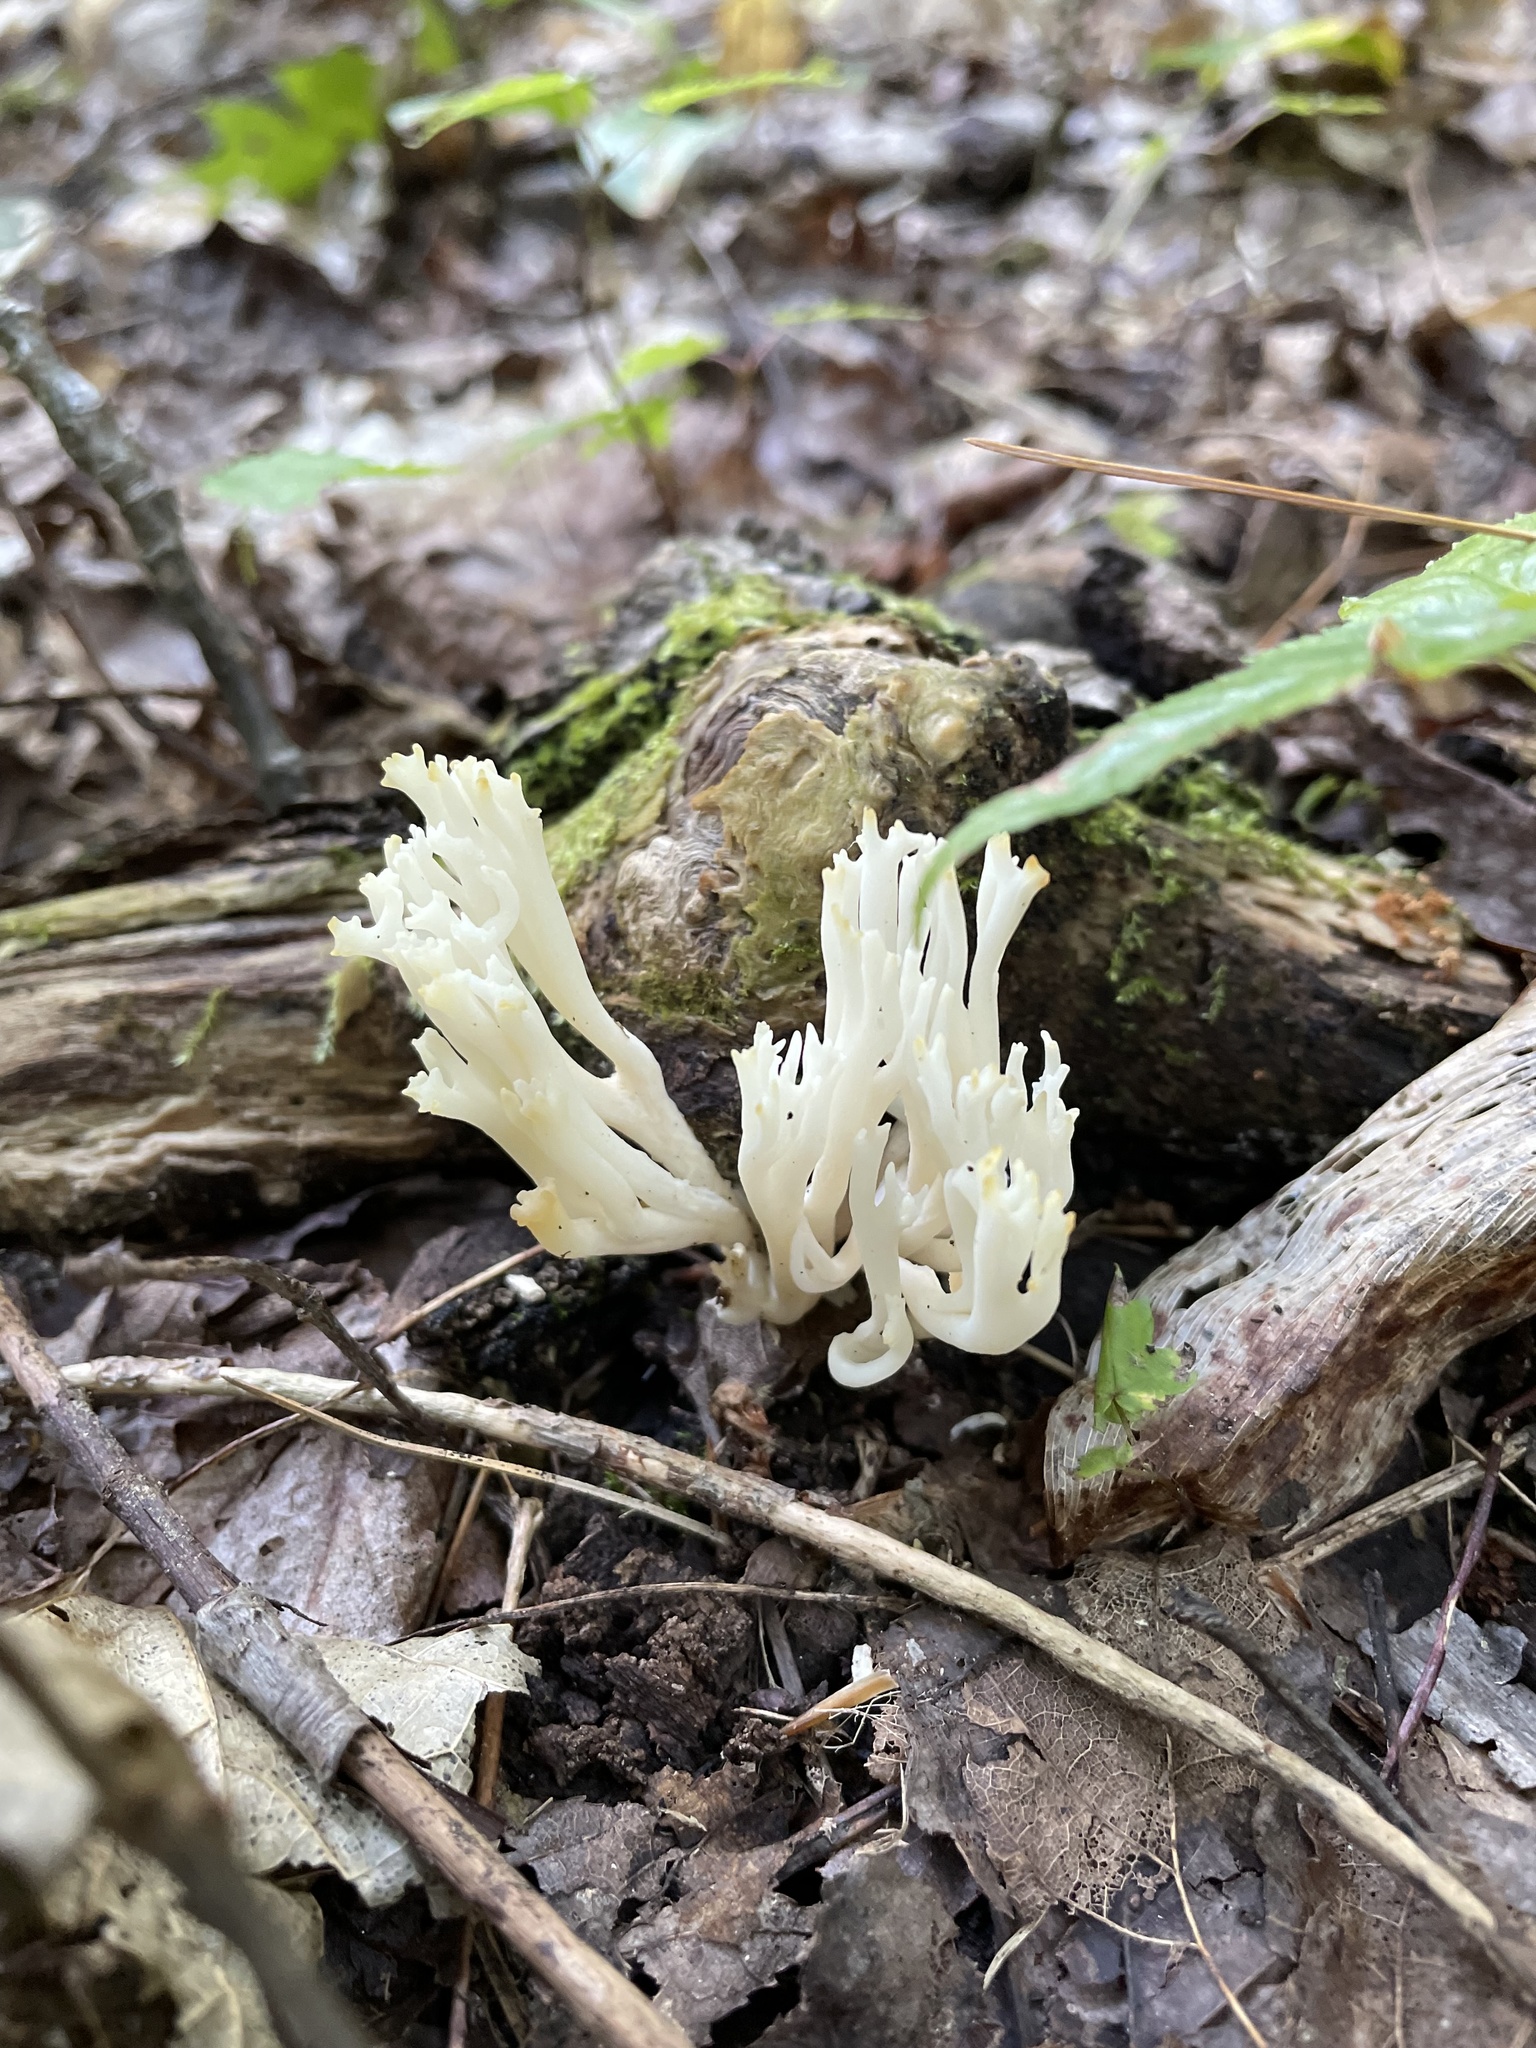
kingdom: Fungi
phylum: Basidiomycota
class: Agaricomycetes
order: Agaricales
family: Clavariaceae
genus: Ramariopsis
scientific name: Ramariopsis kunzei
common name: Ivory coral
